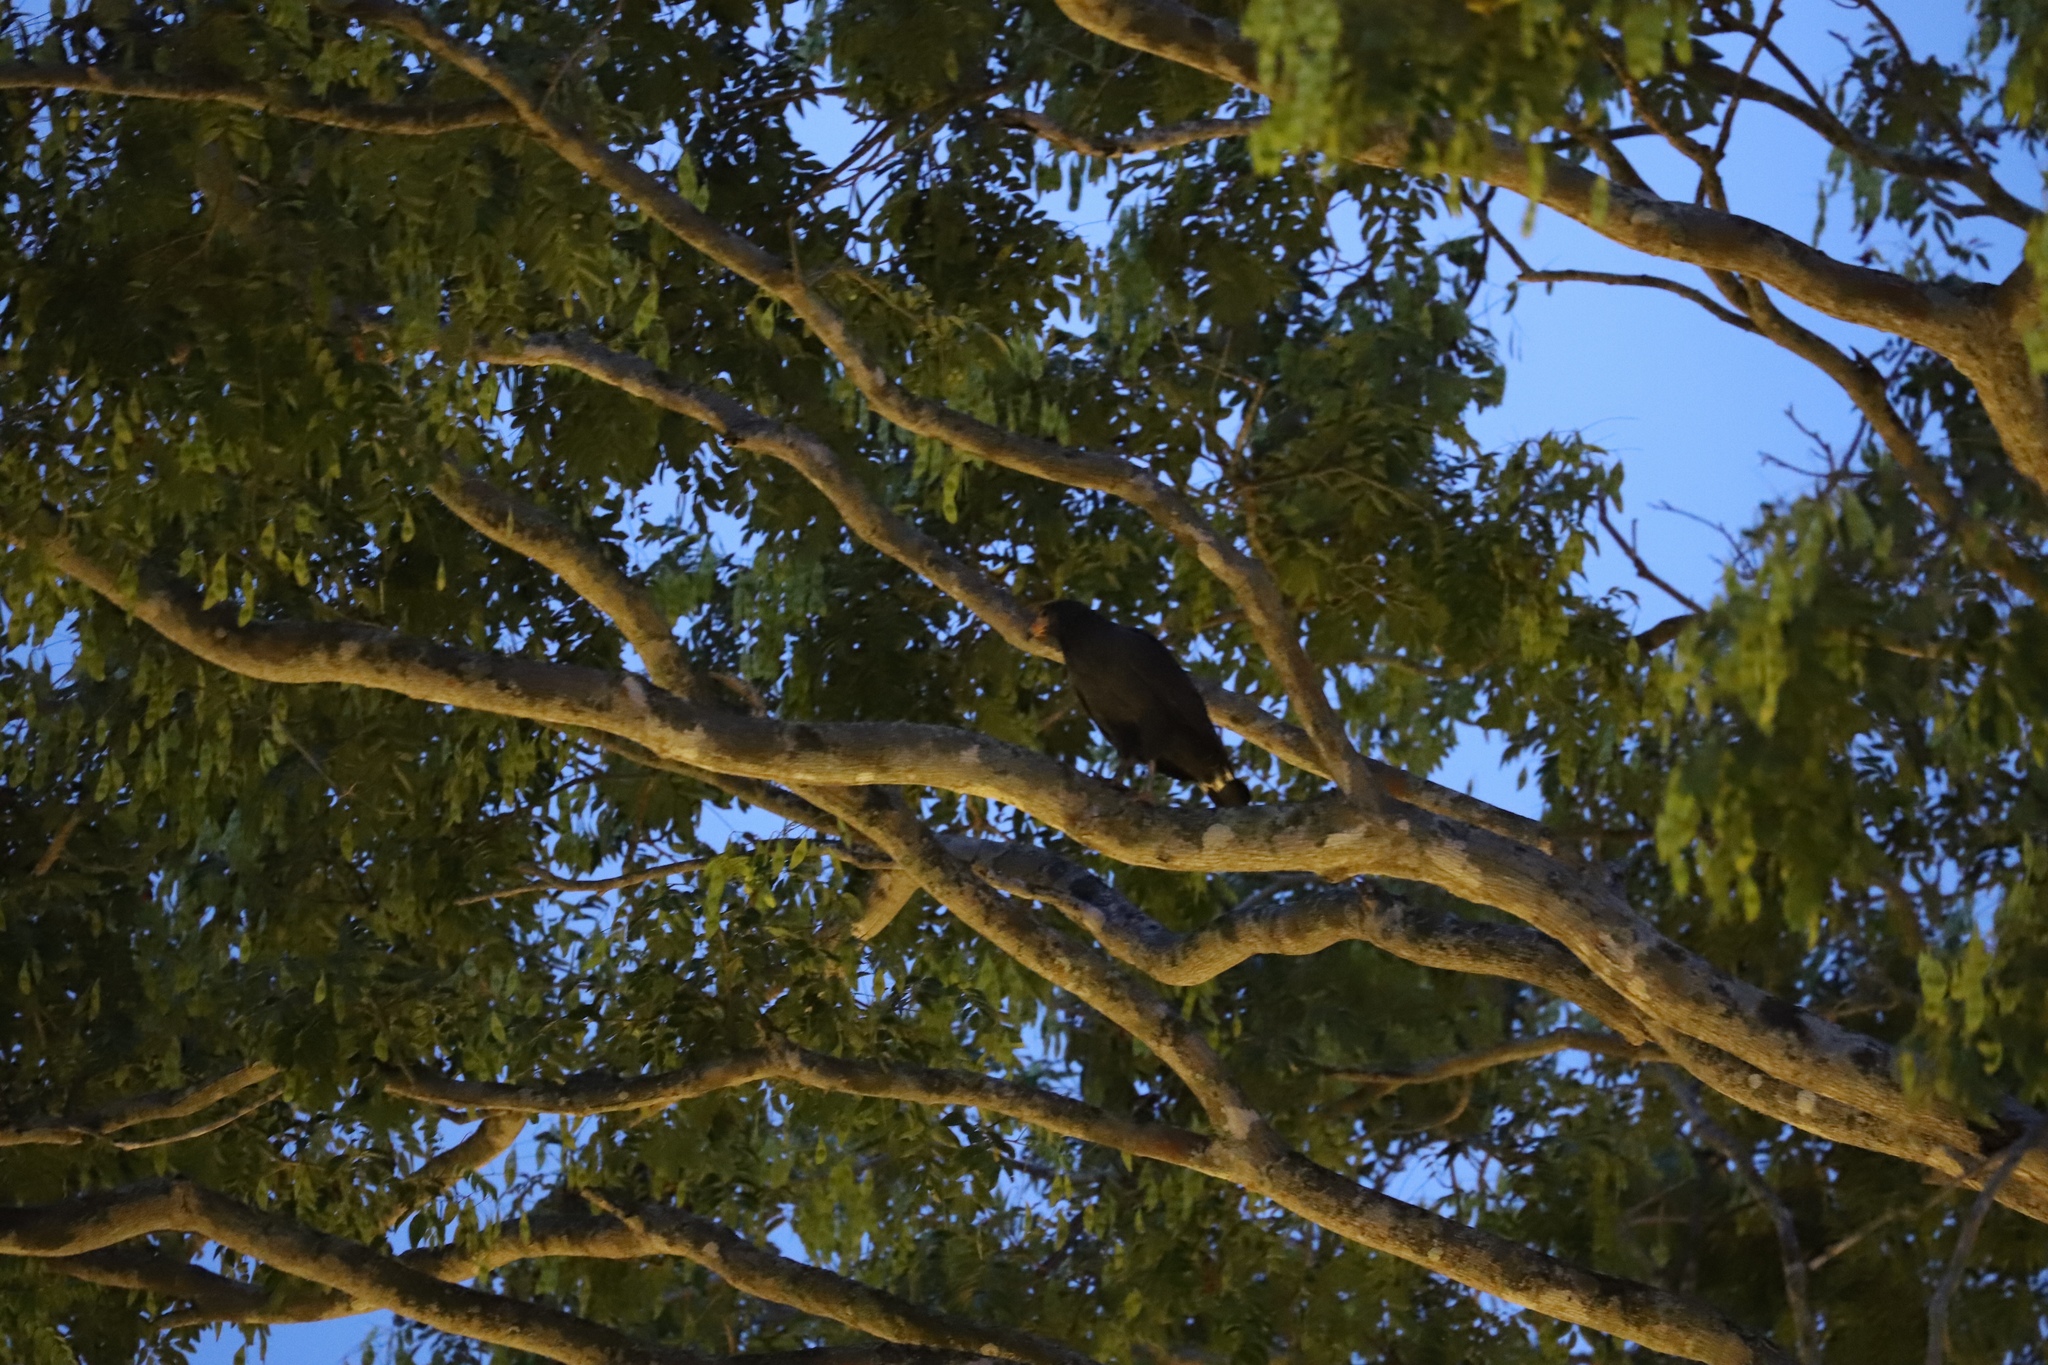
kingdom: Animalia
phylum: Chordata
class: Aves
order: Accipitriformes
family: Accipitridae
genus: Buteogallus
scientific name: Buteogallus anthracinus
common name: Common black hawk
